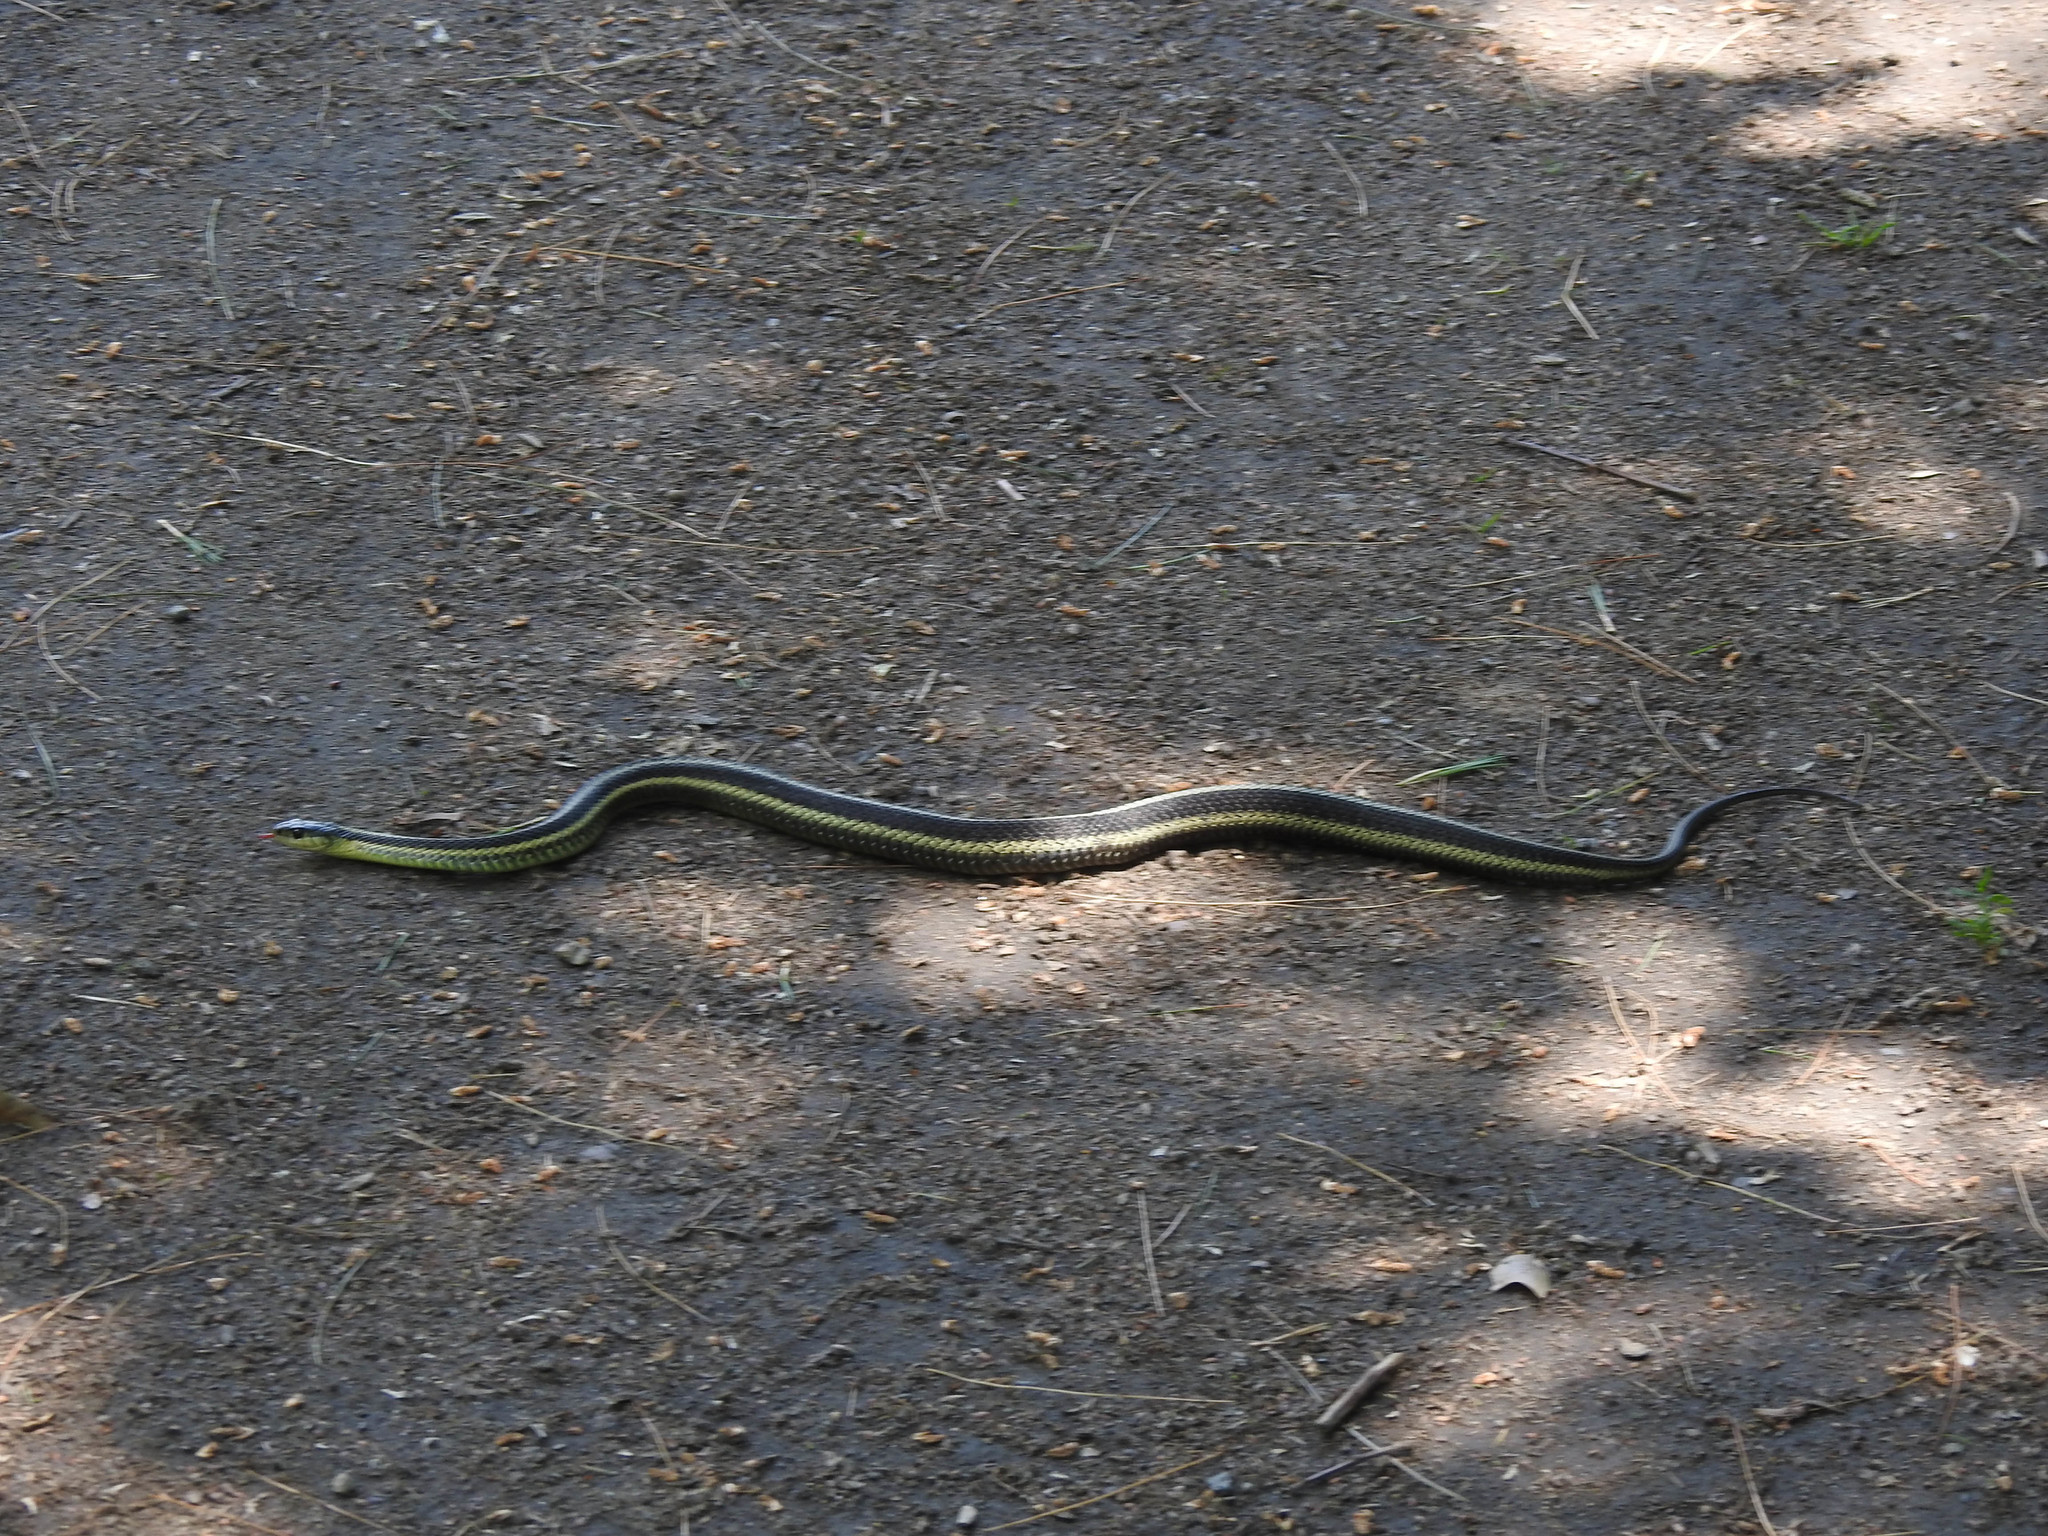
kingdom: Animalia
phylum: Chordata
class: Squamata
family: Colubridae
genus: Thamnophis
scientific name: Thamnophis sirtalis
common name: Common garter snake
